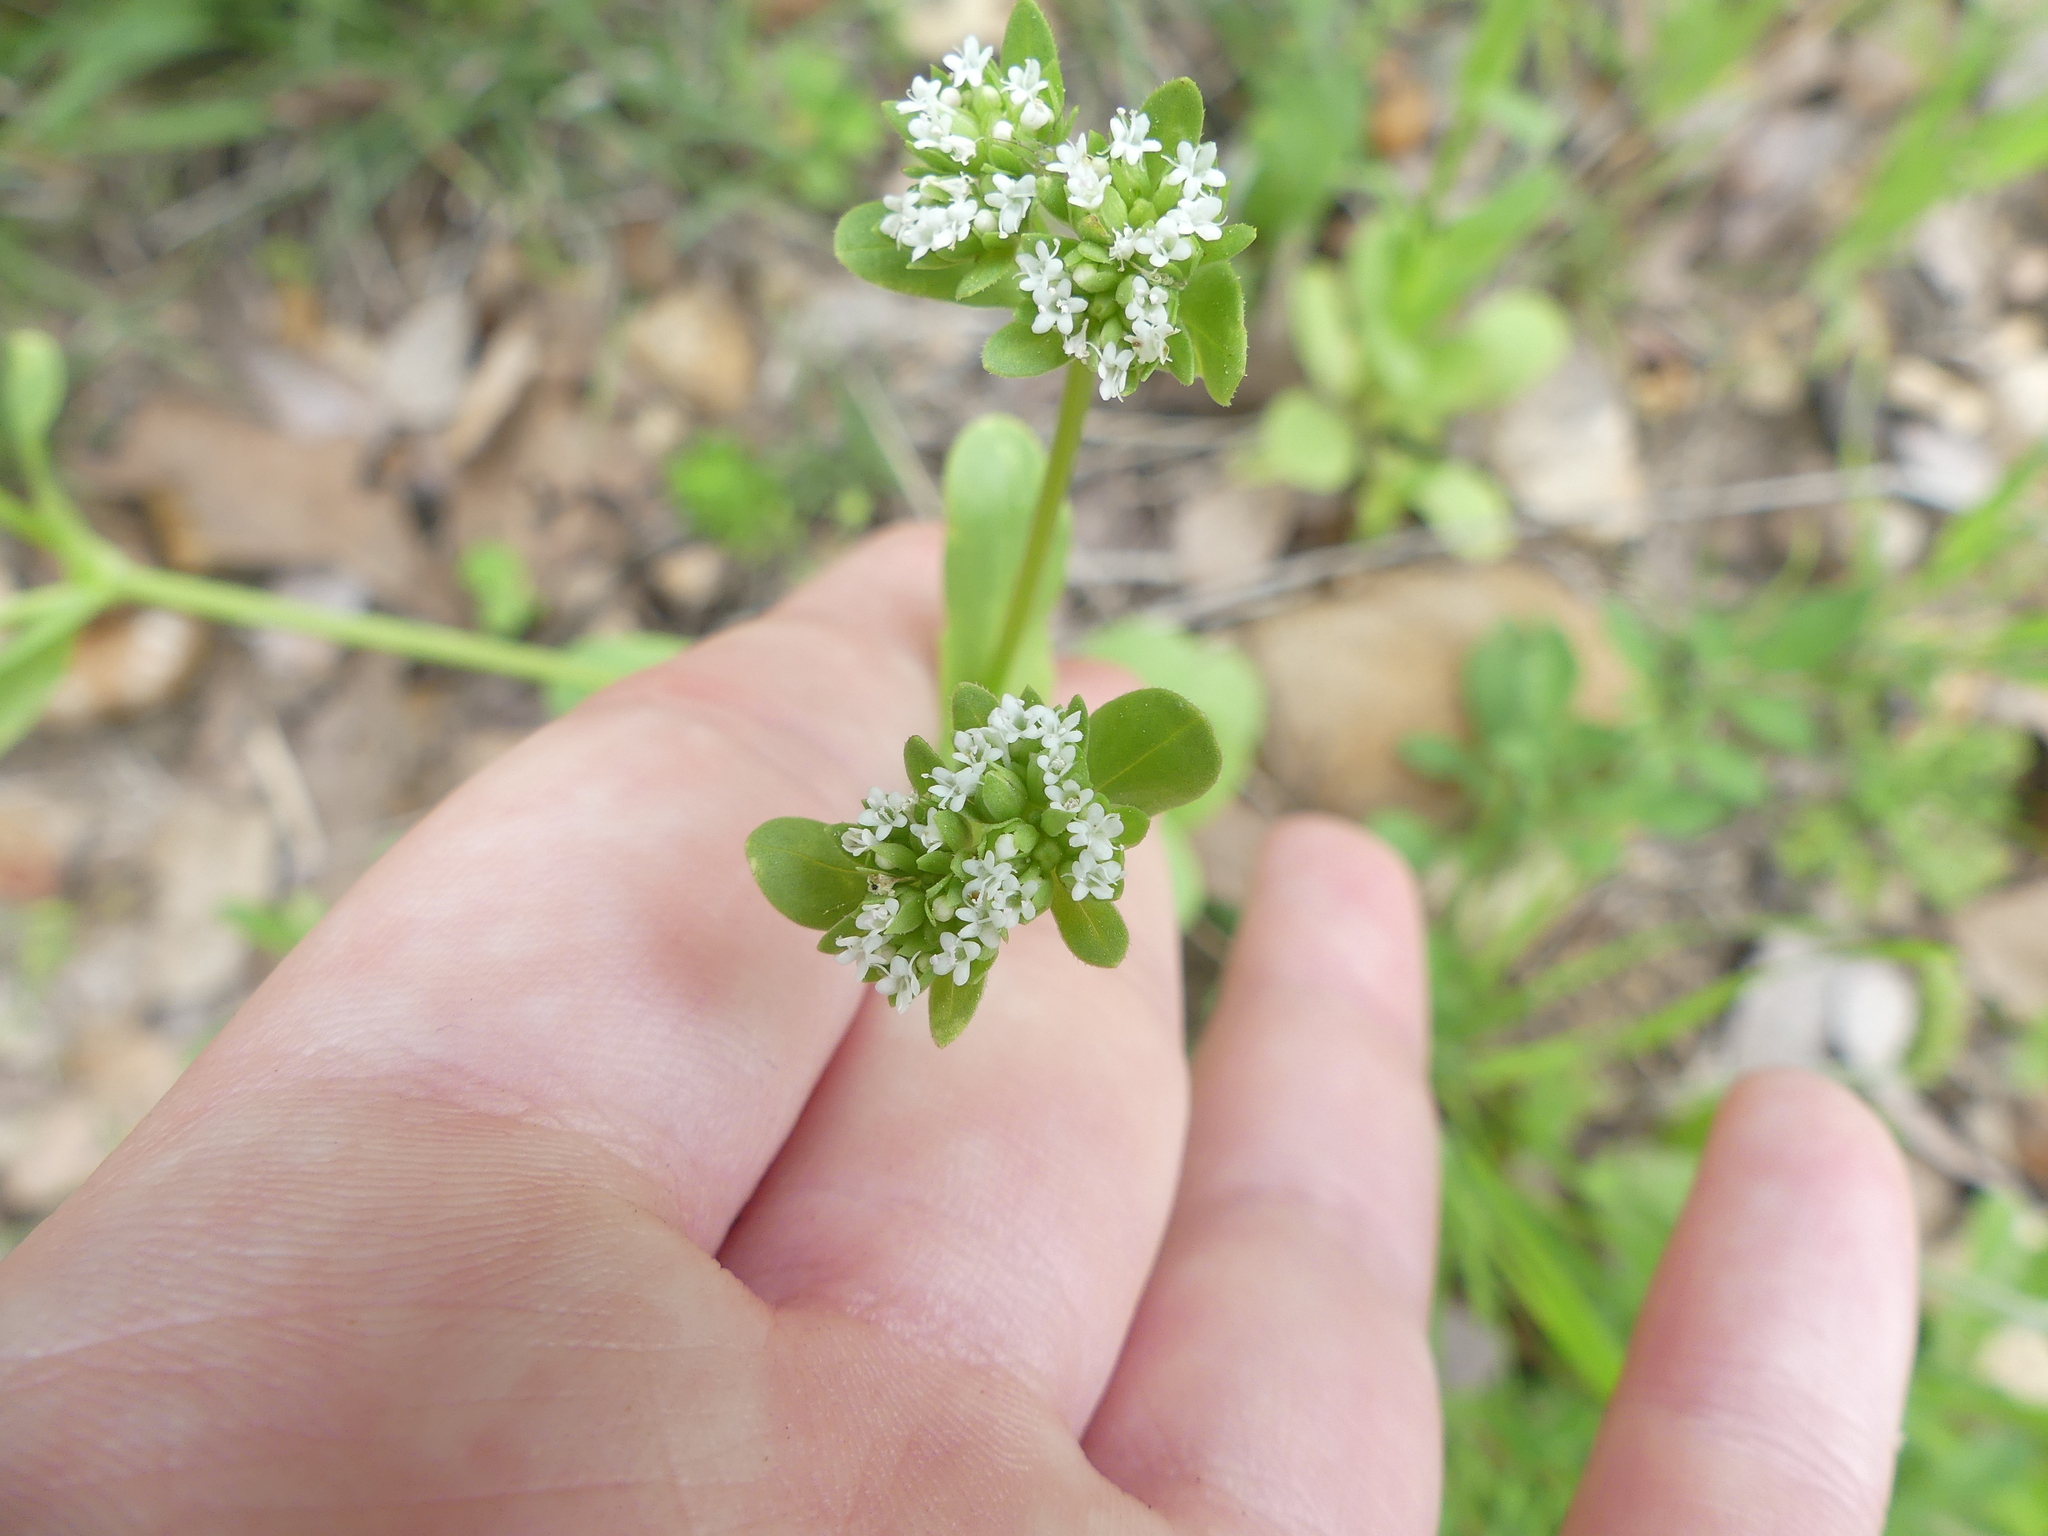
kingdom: Plantae
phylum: Tracheophyta
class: Magnoliopsida
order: Dipsacales
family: Caprifoliaceae
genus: Valerianella
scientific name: Valerianella radiata
